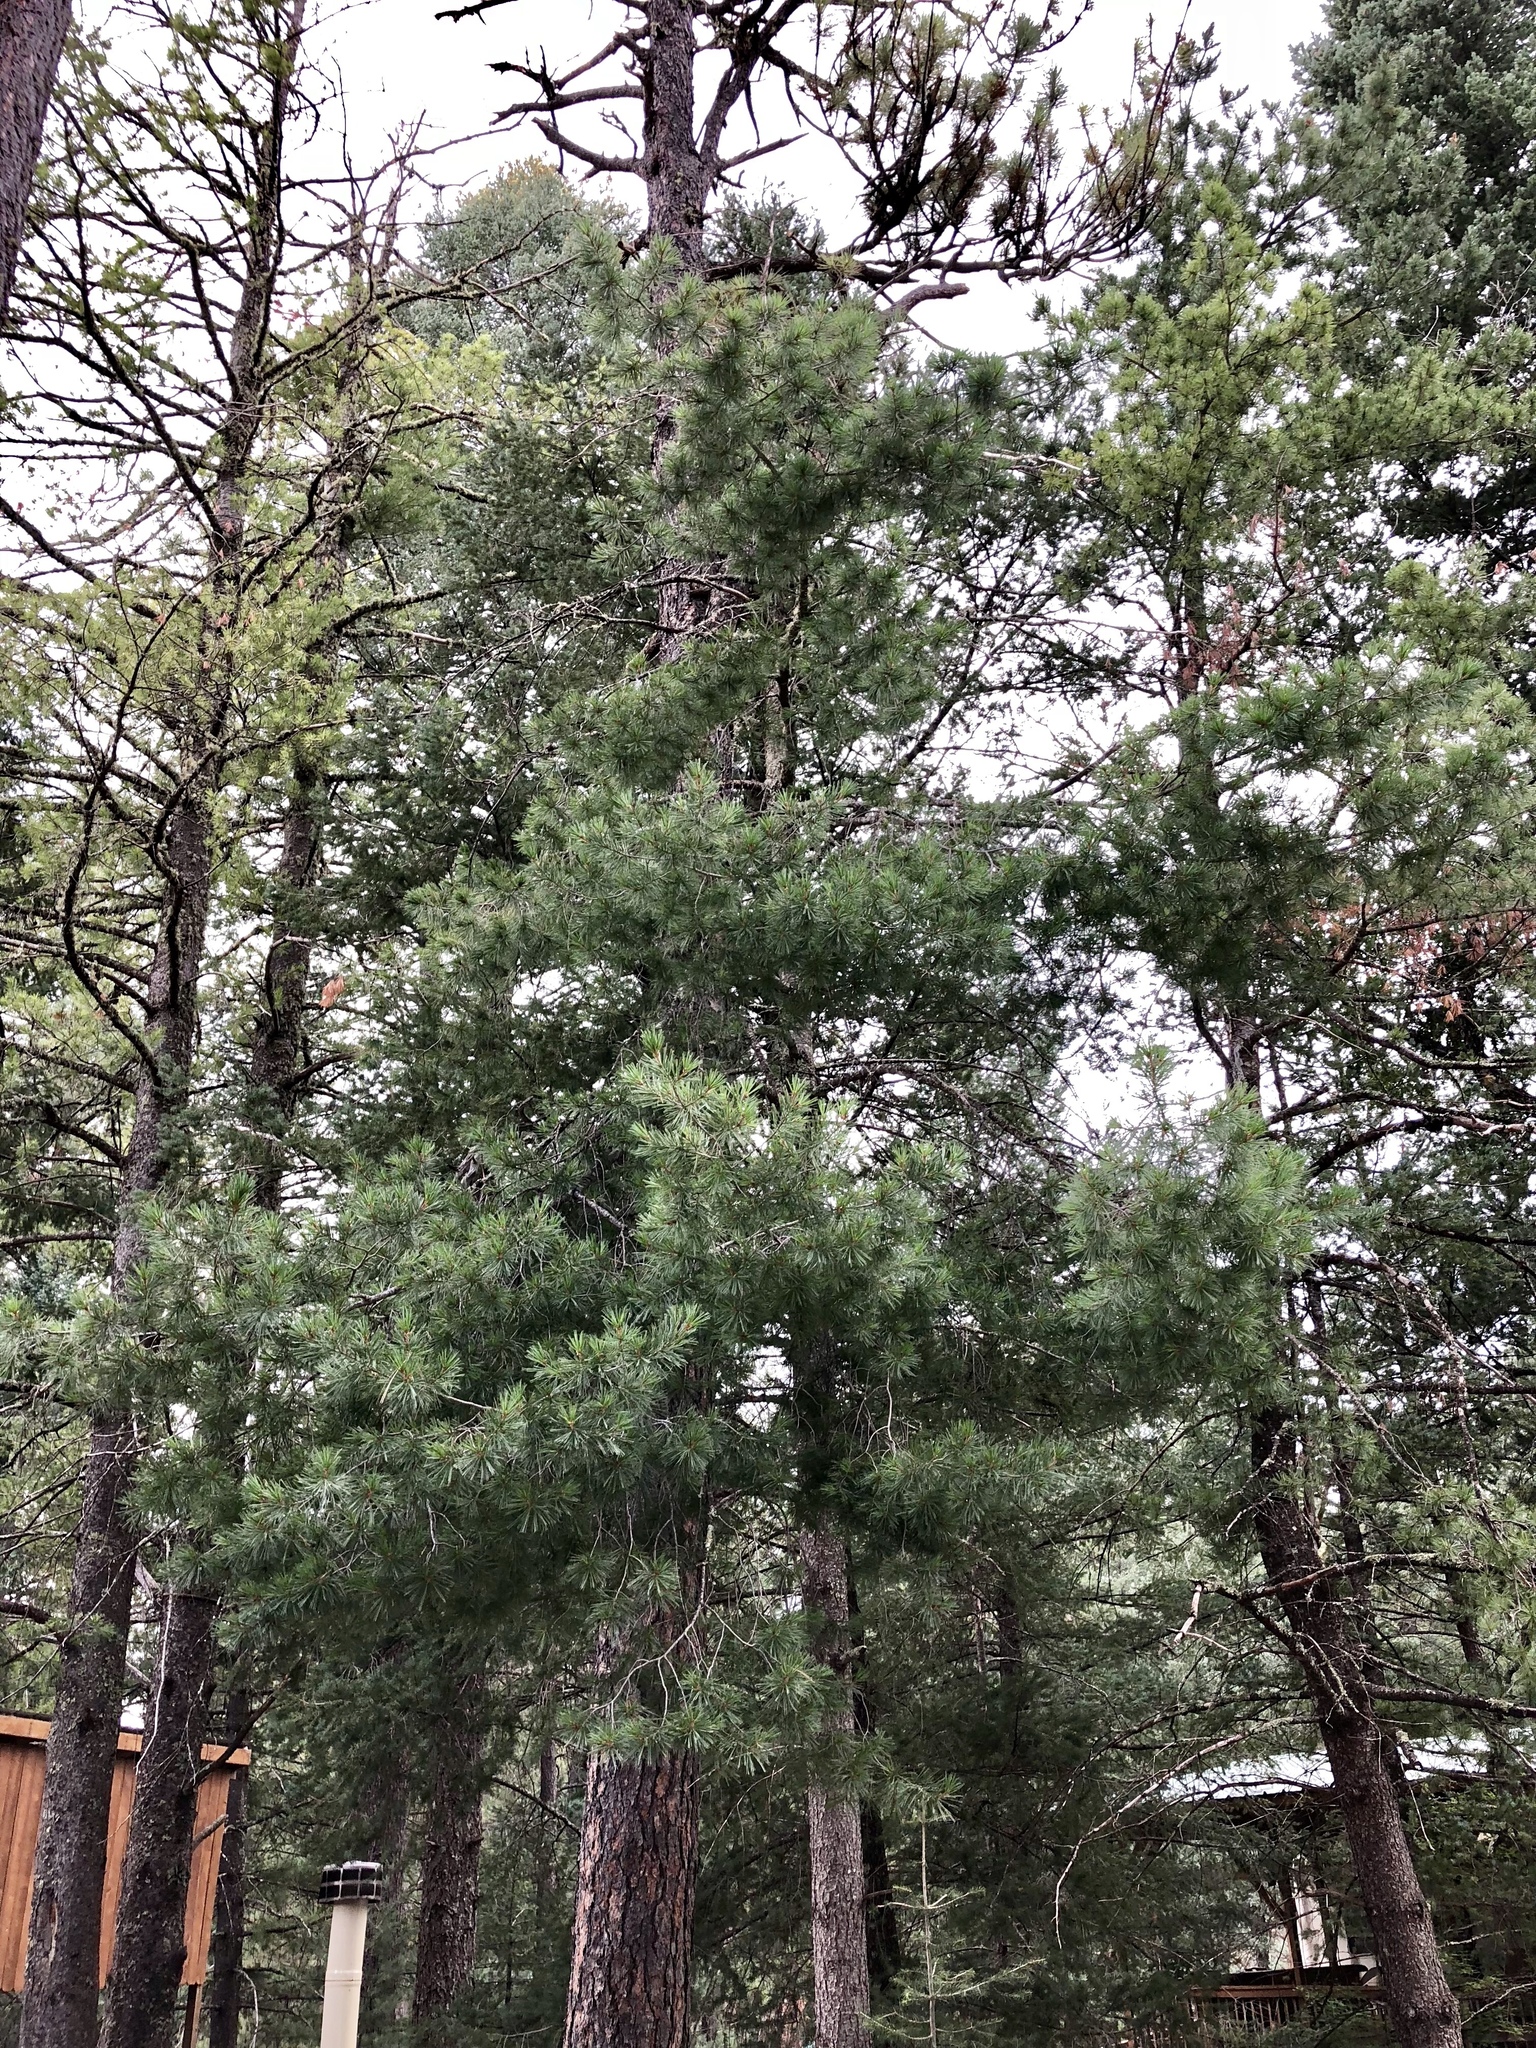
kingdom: Plantae
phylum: Tracheophyta
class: Pinopsida
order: Pinales
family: Pinaceae
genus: Pinus
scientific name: Pinus ponderosa
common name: Western yellow-pine
